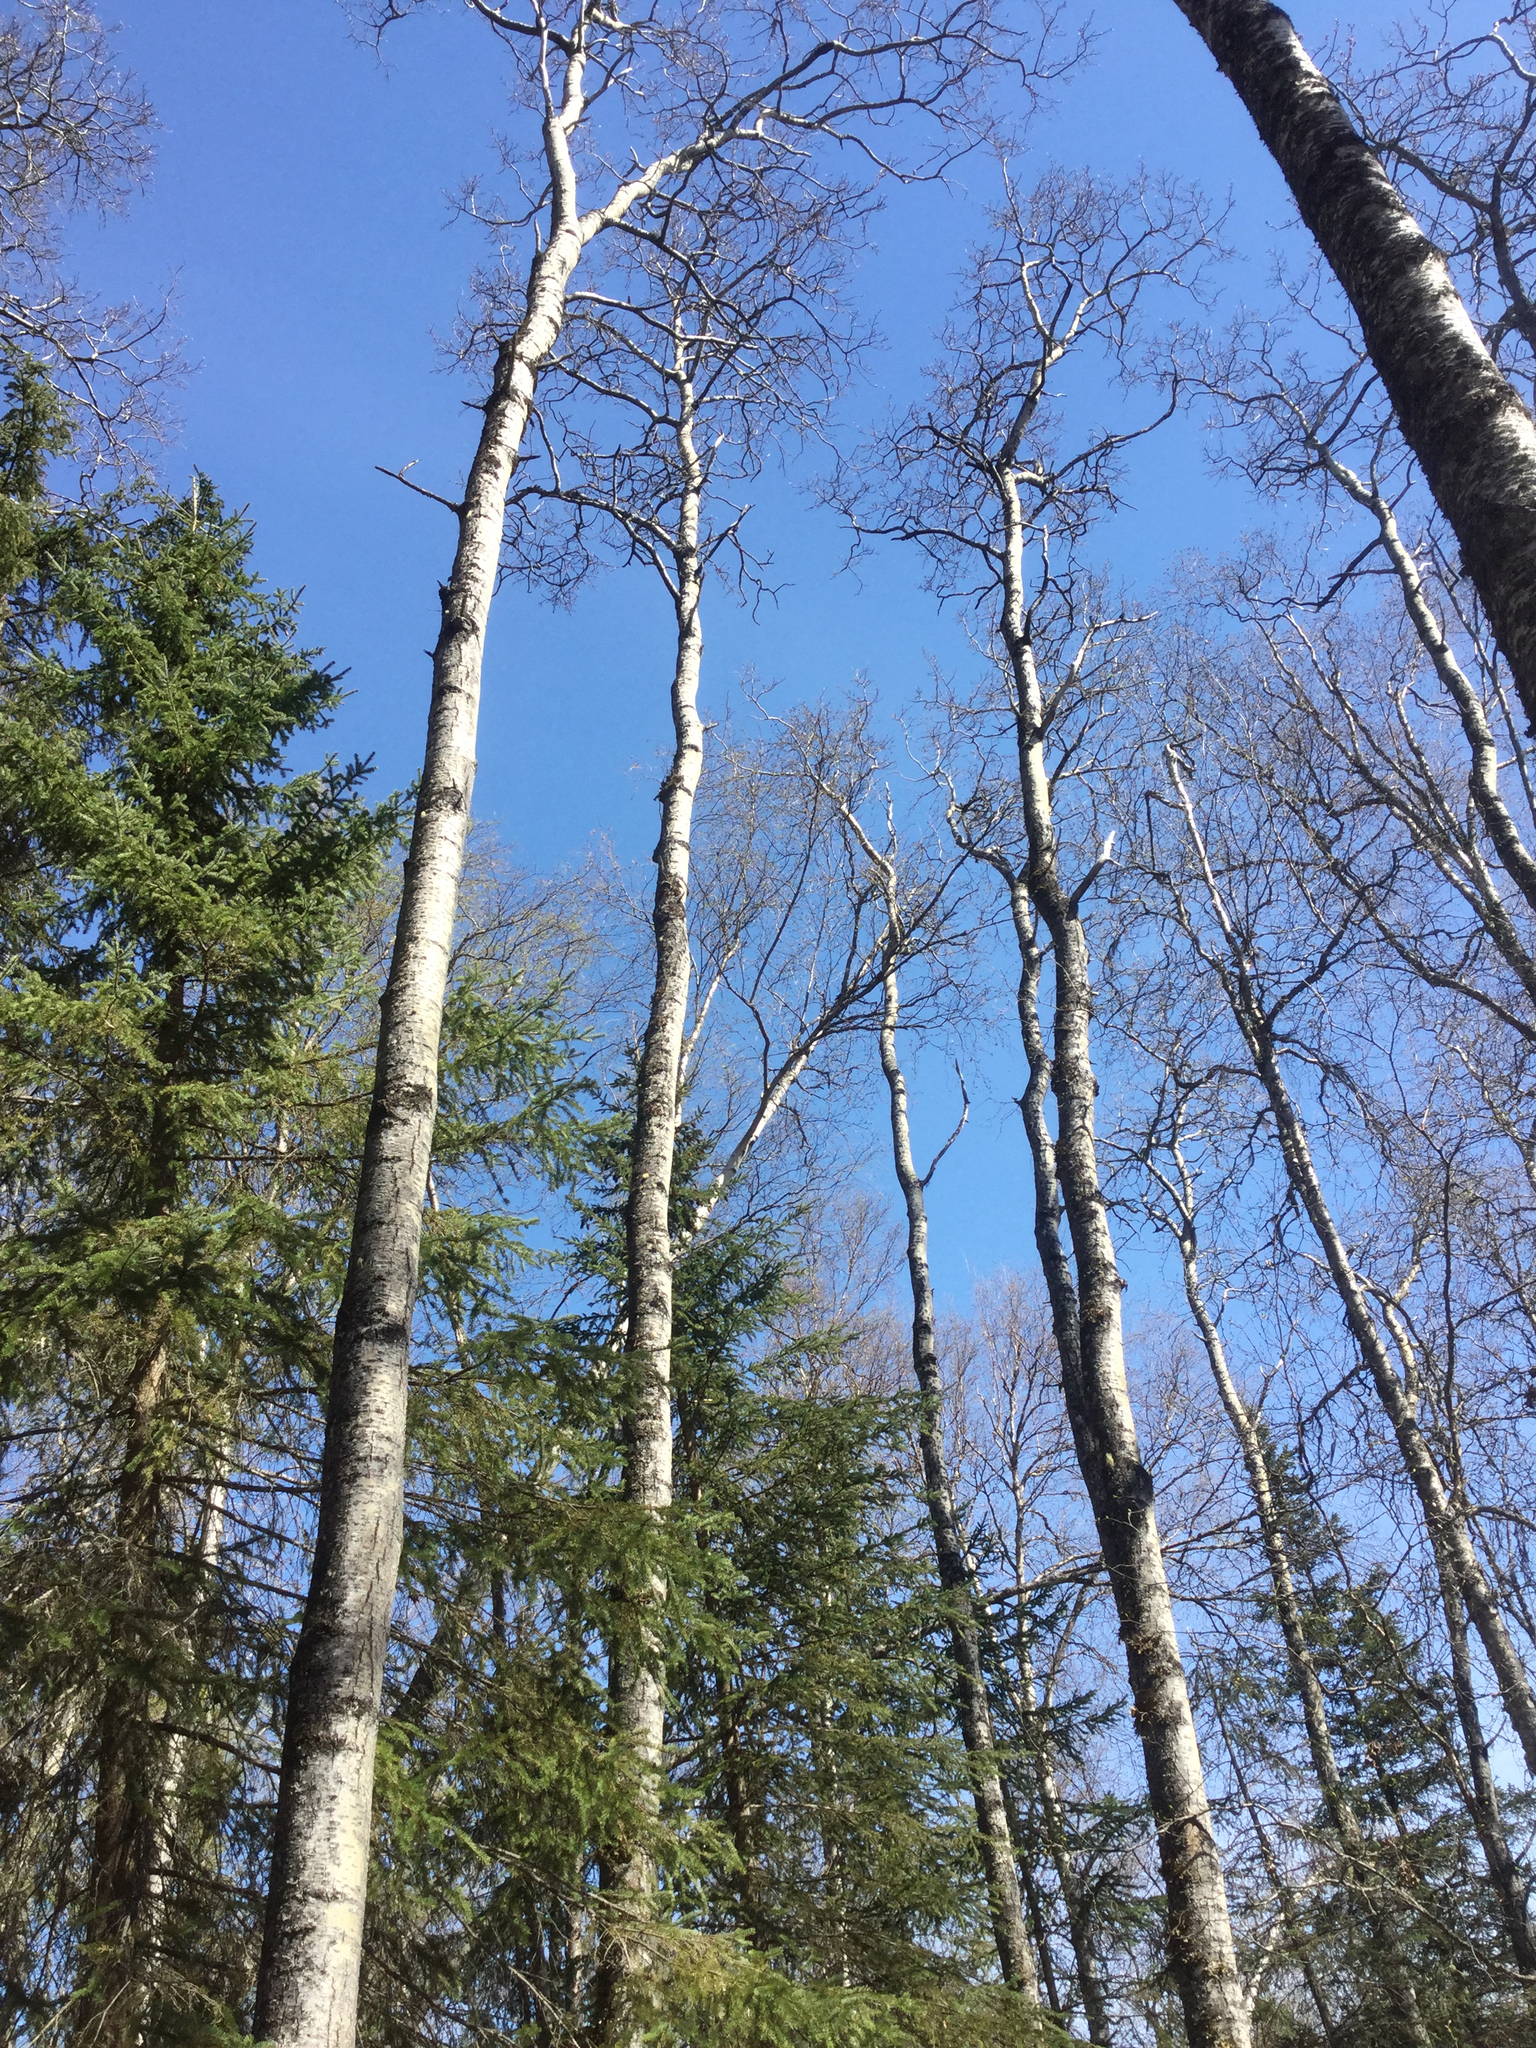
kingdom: Plantae
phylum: Tracheophyta
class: Magnoliopsida
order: Malpighiales
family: Salicaceae
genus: Populus
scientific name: Populus tremuloides
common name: Quaking aspen
